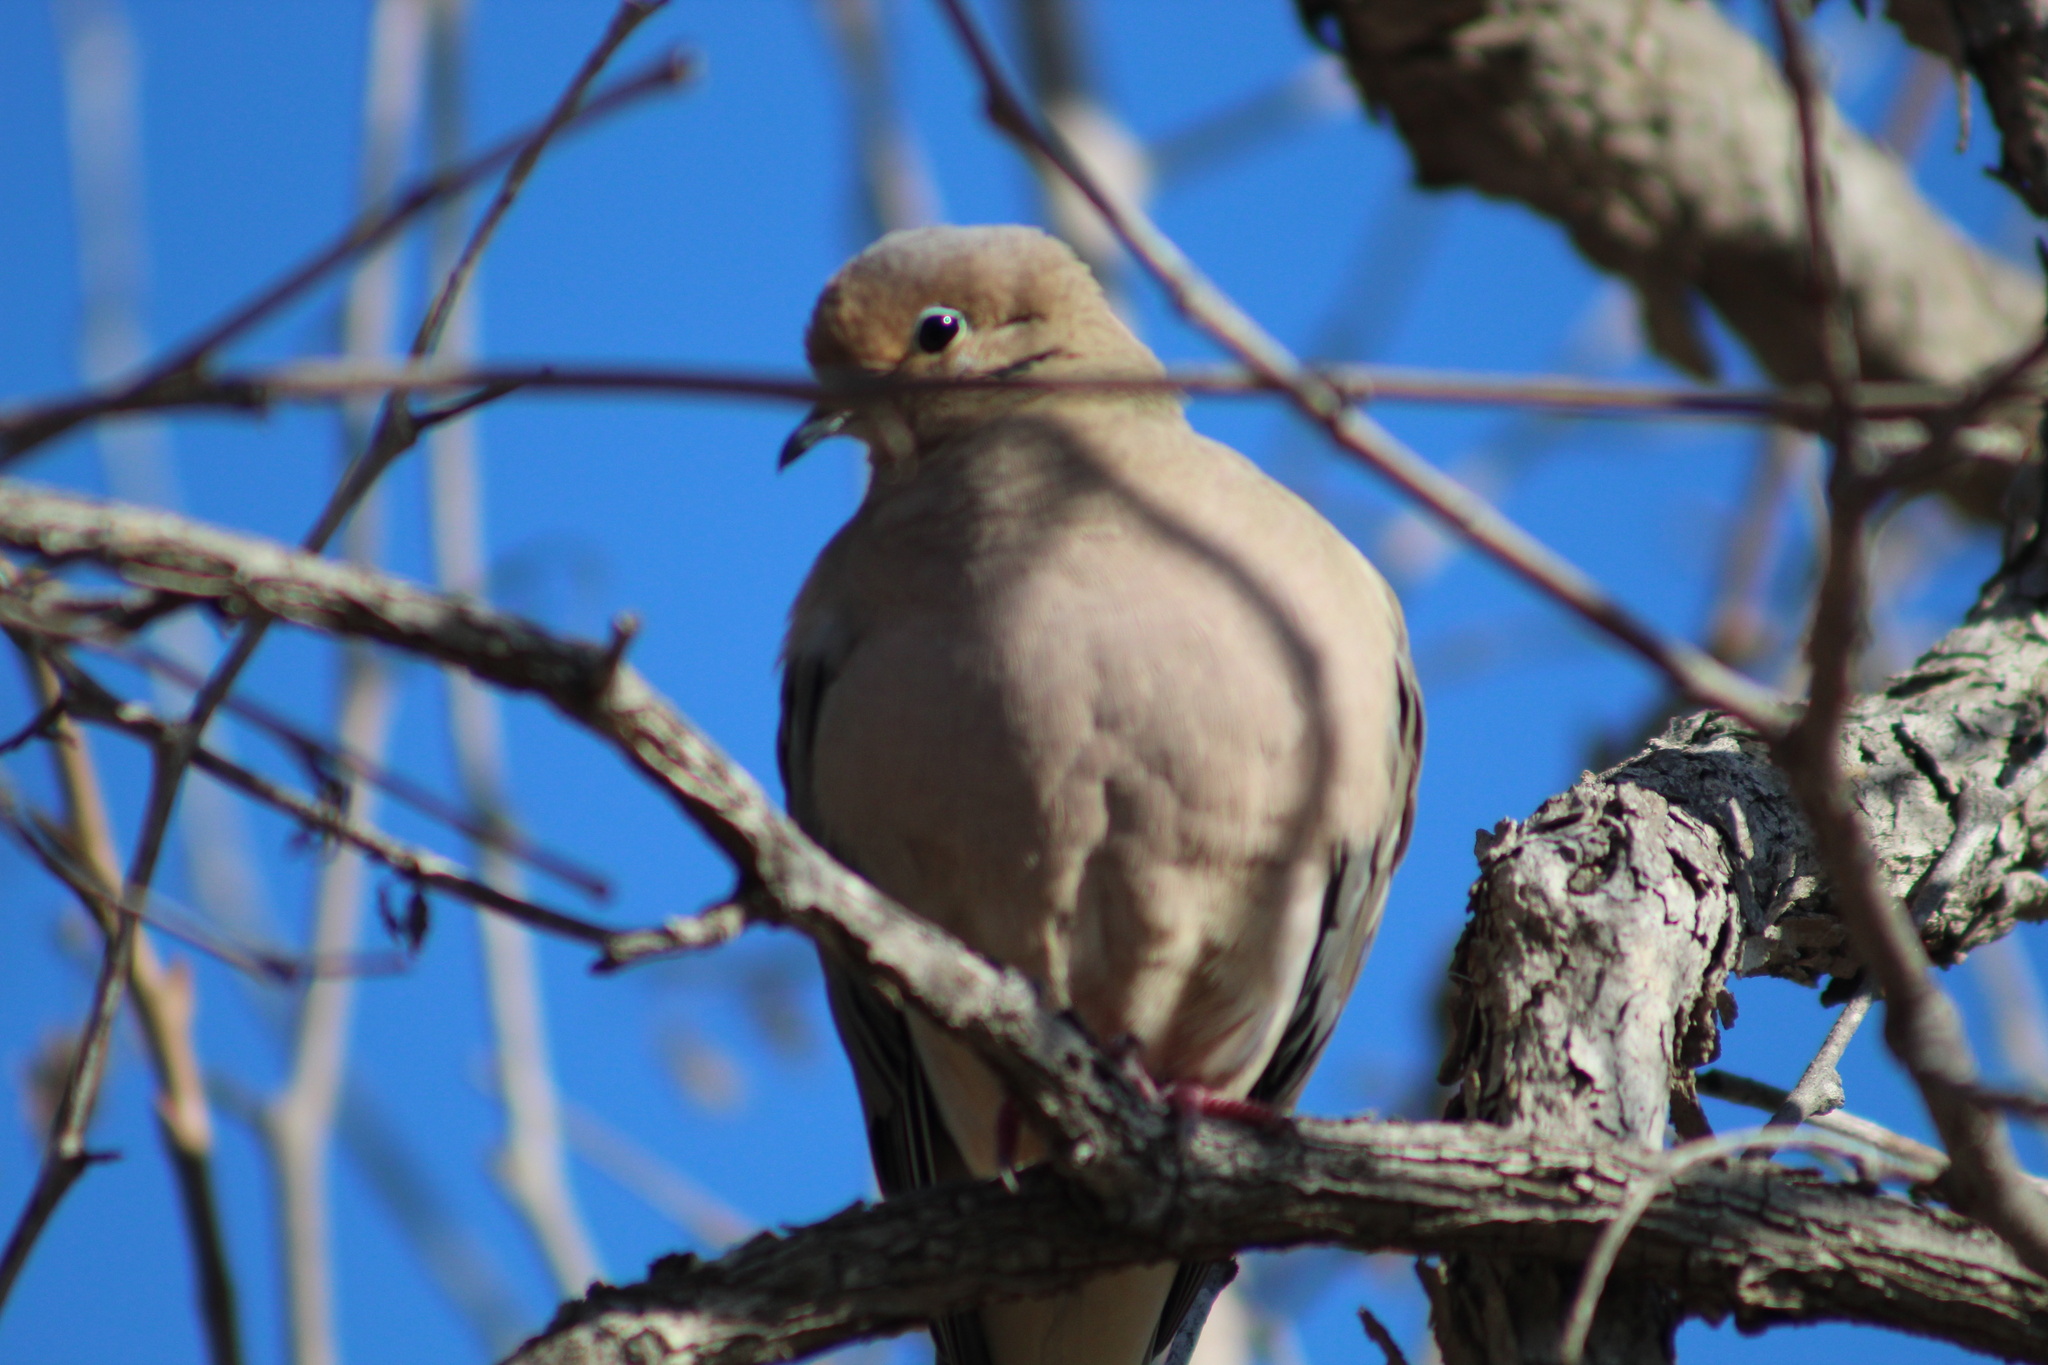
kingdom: Animalia
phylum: Chordata
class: Aves
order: Columbiformes
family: Columbidae
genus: Zenaida
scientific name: Zenaida macroura
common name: Mourning dove
